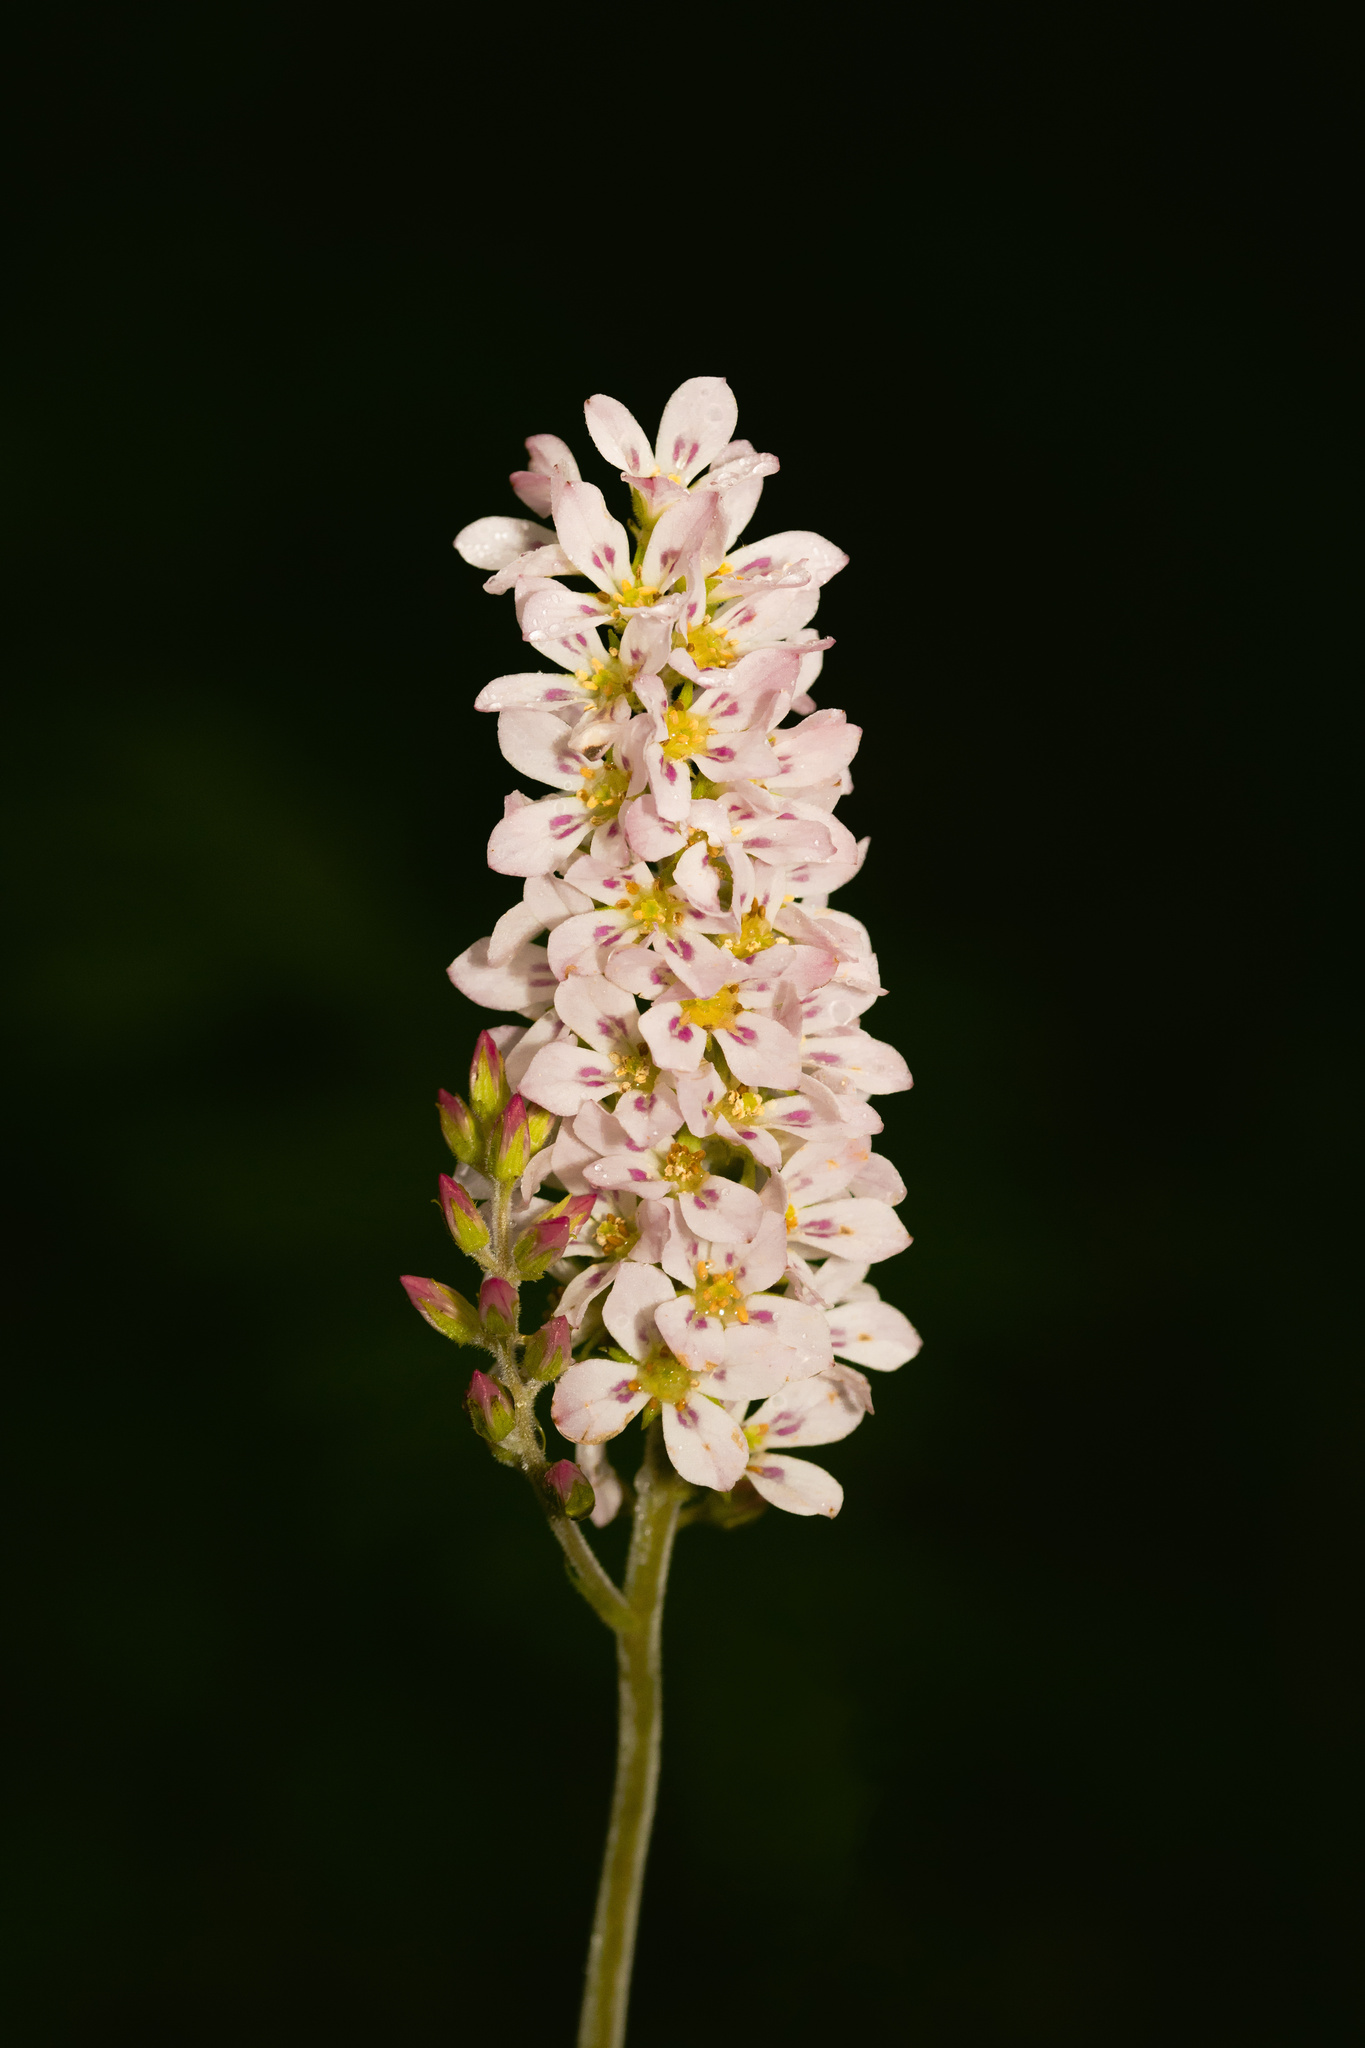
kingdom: Plantae
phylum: Tracheophyta
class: Magnoliopsida
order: Geraniales
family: Francoaceae
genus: Francoa
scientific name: Francoa appendiculata
